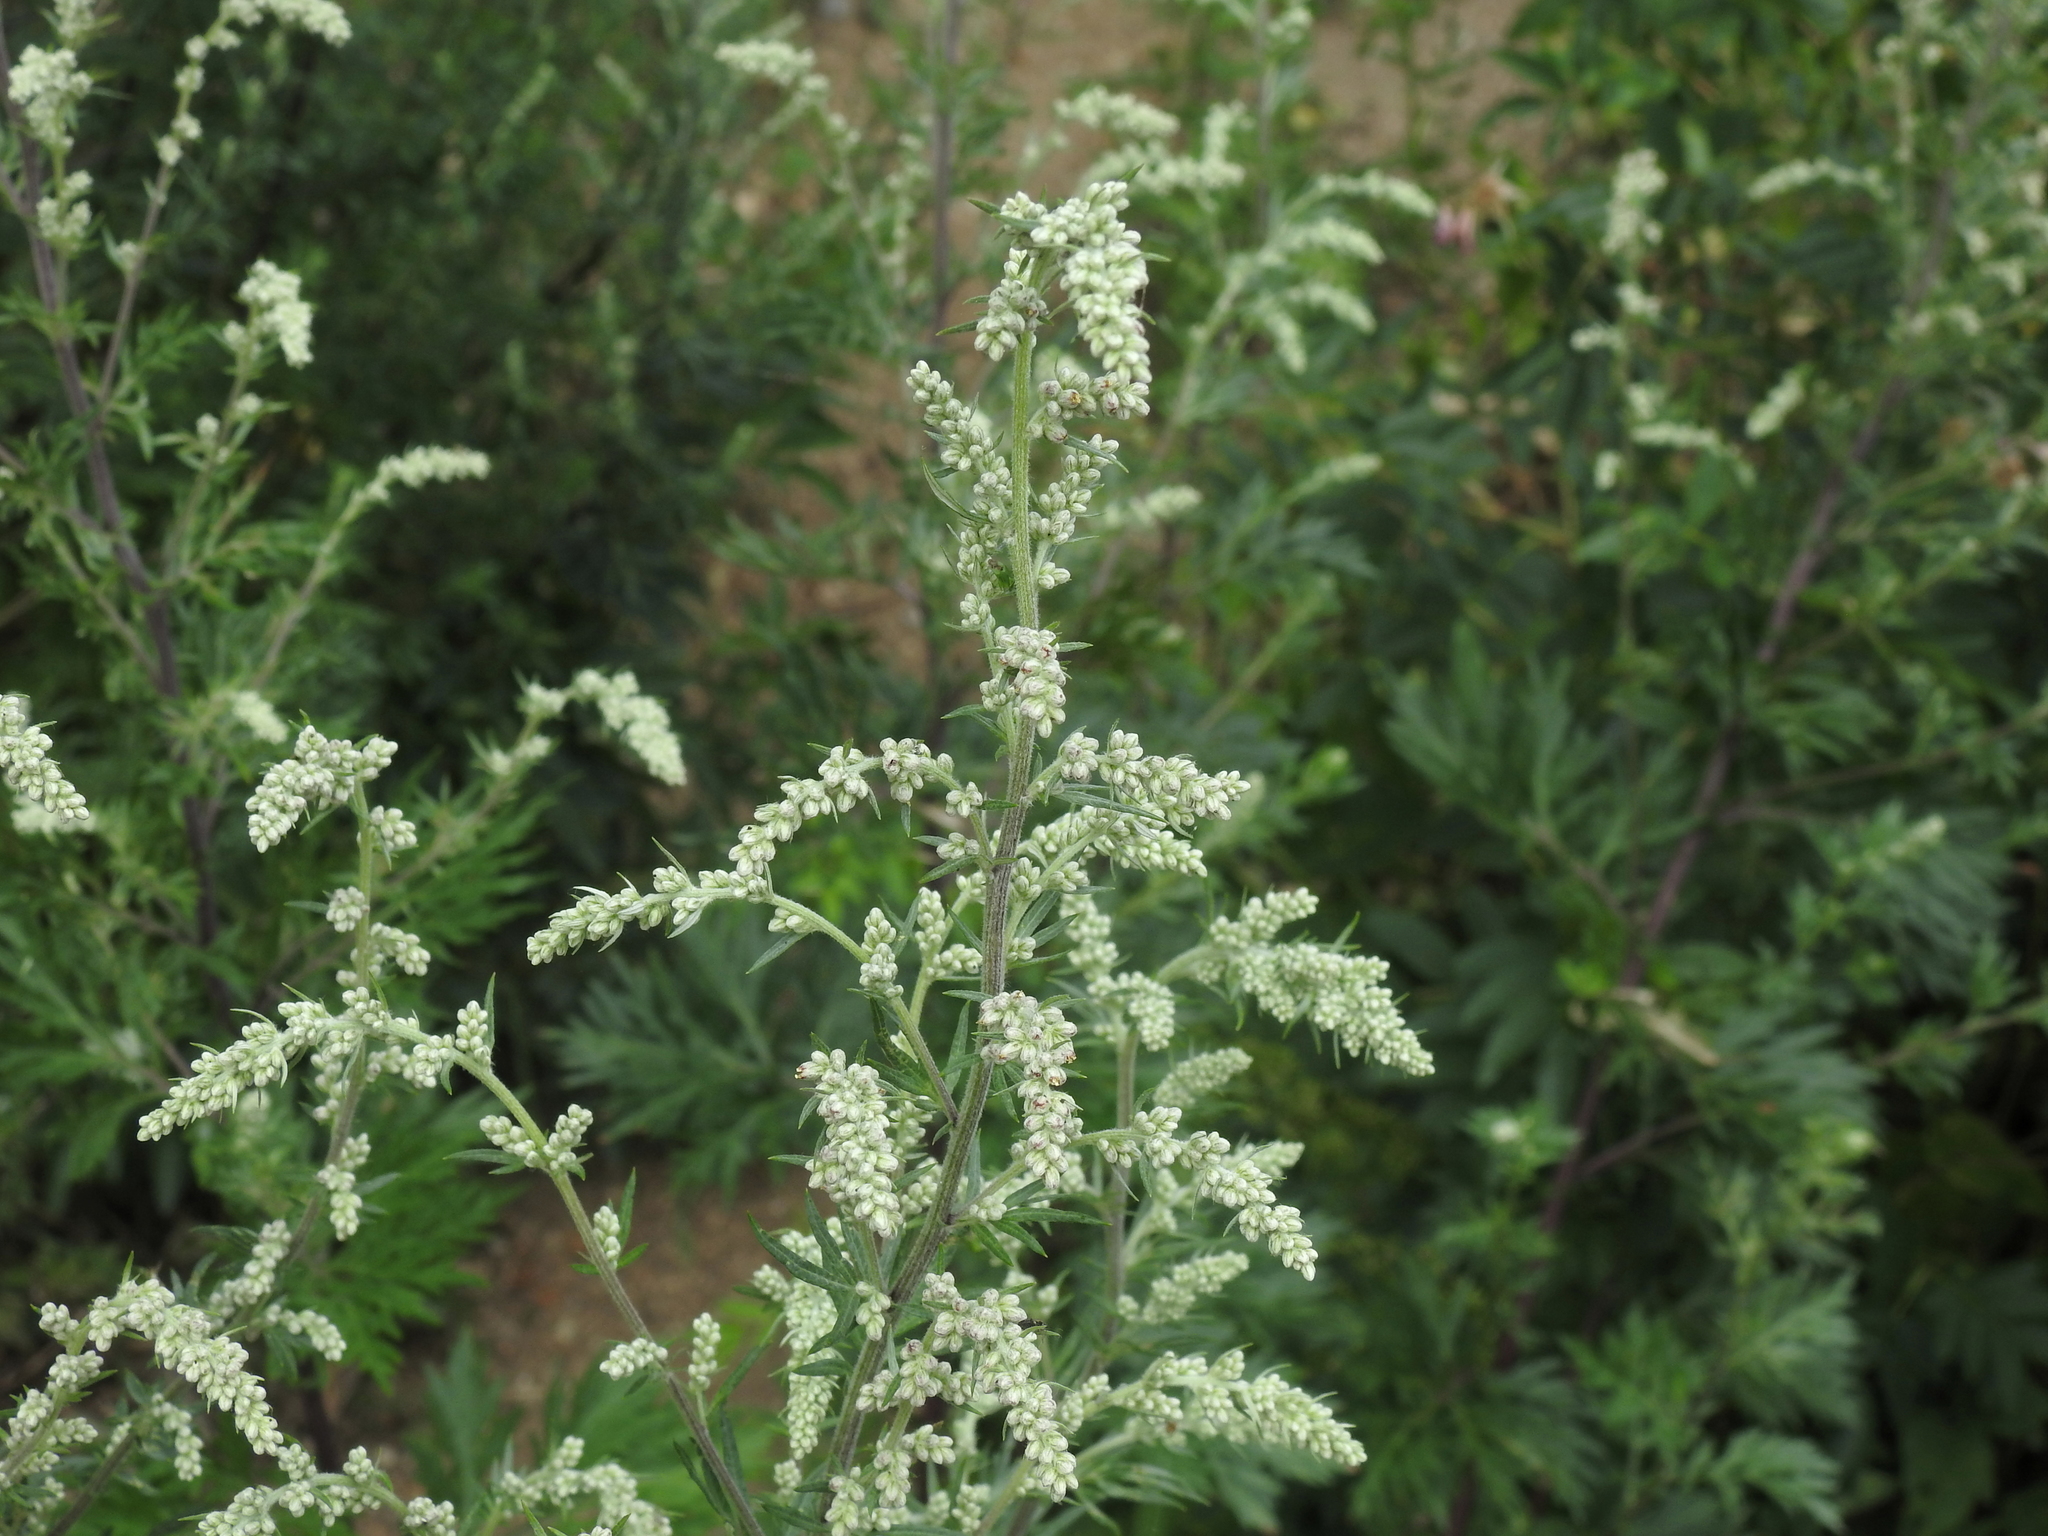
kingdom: Plantae
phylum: Tracheophyta
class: Magnoliopsida
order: Asterales
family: Asteraceae
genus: Artemisia
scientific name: Artemisia vulgaris
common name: Mugwort
